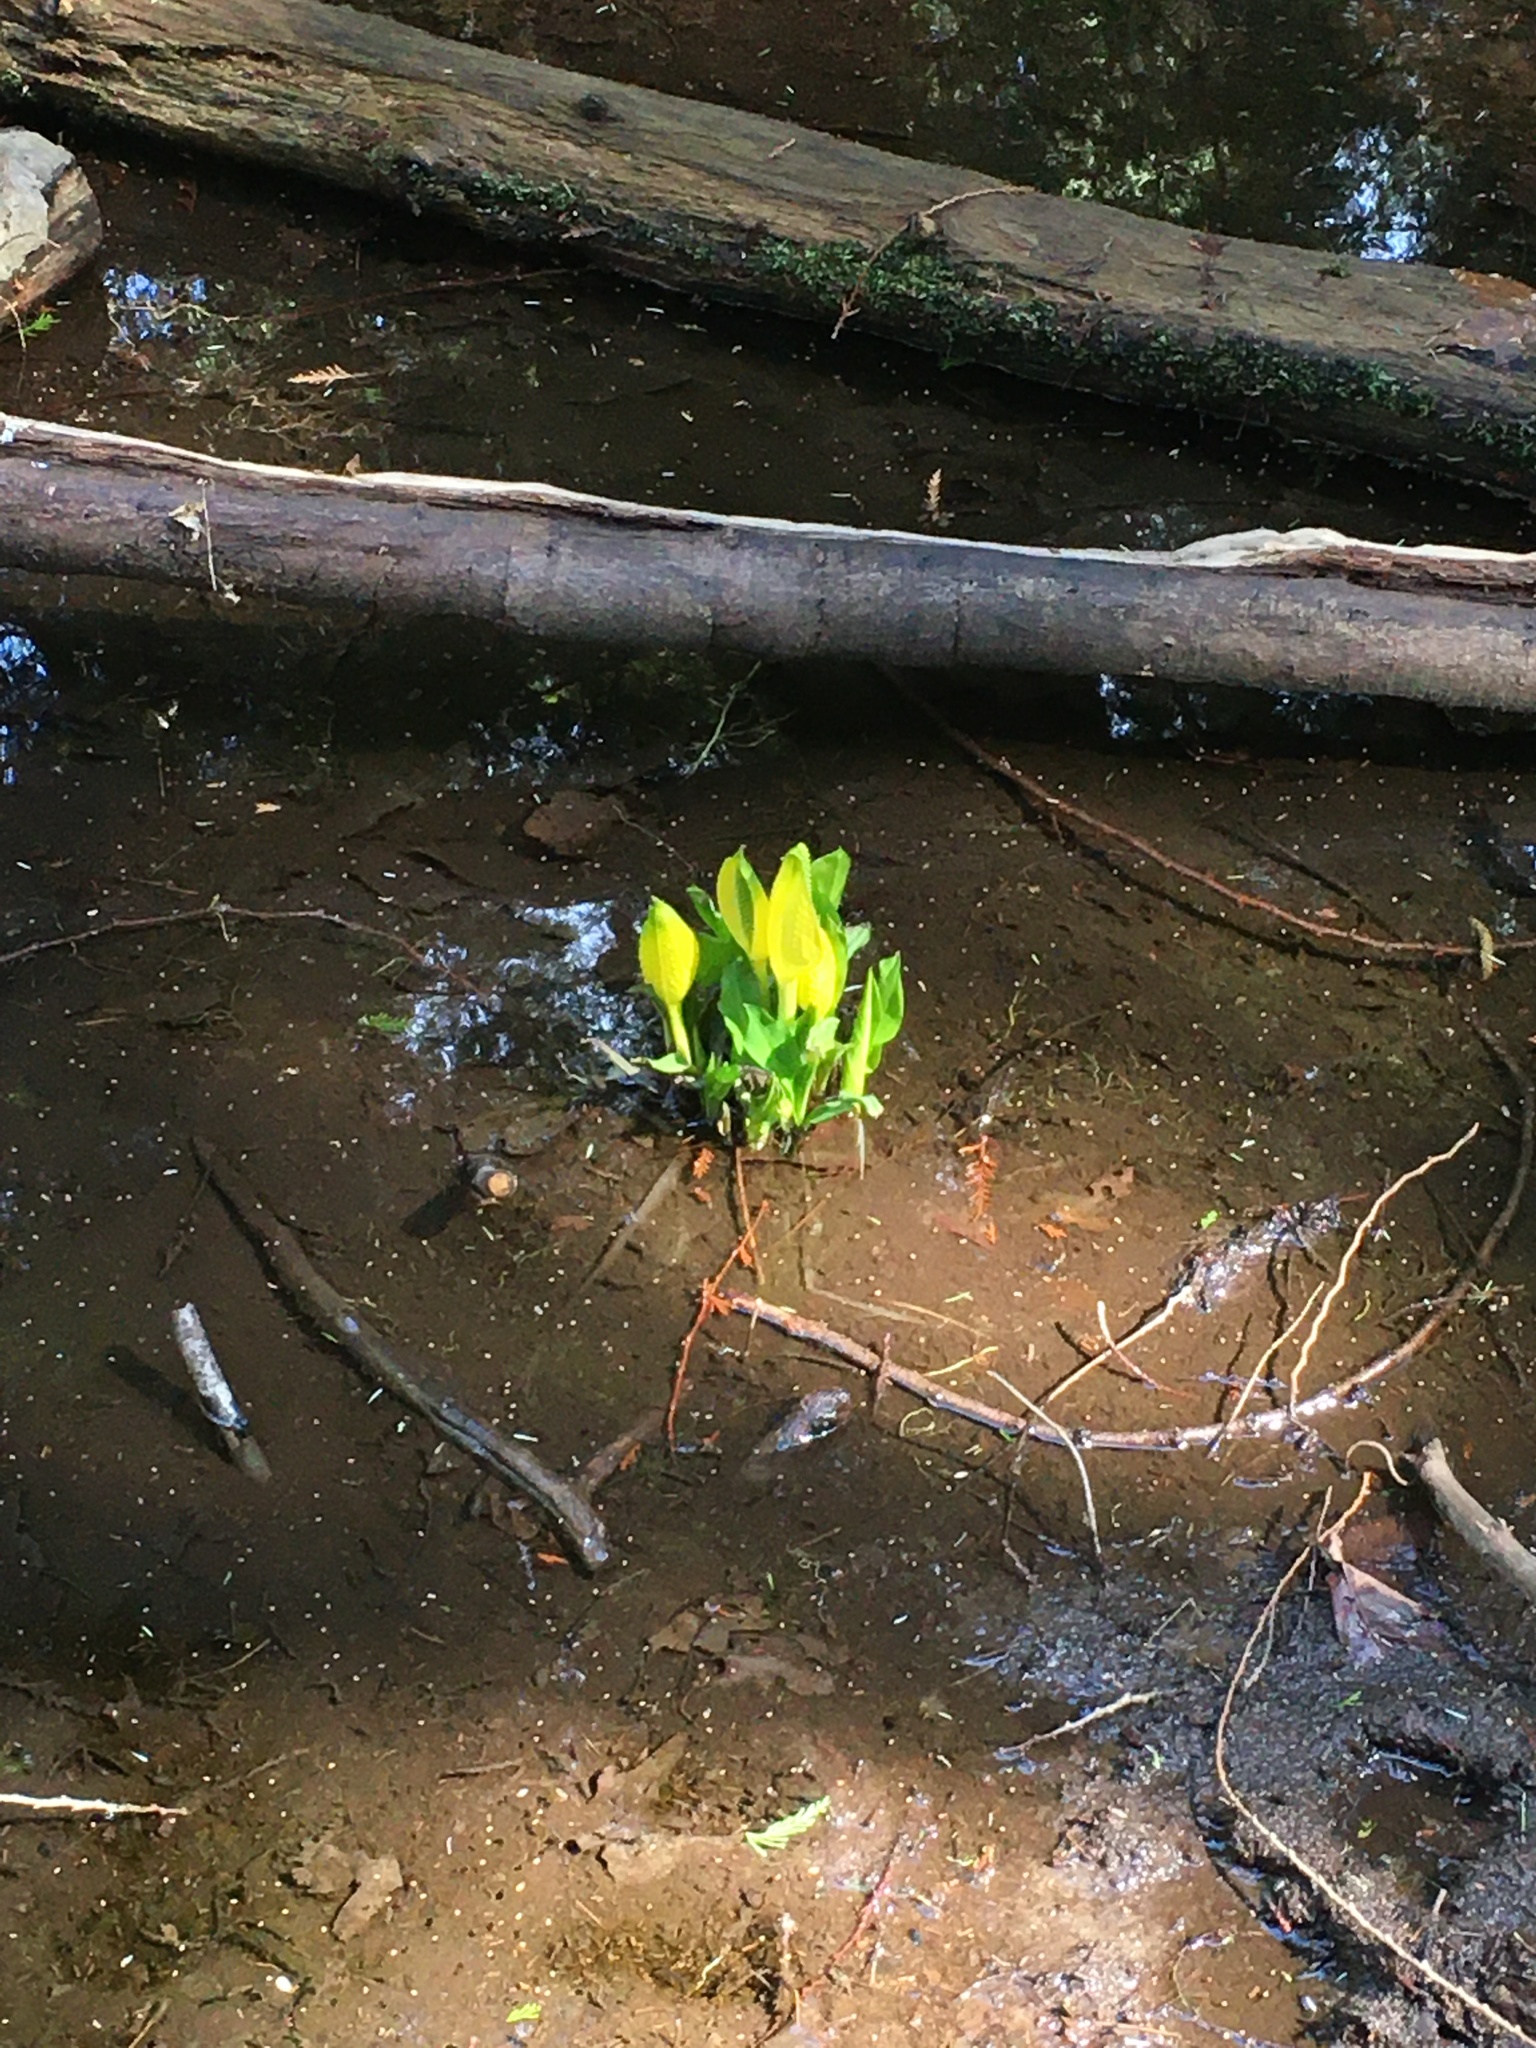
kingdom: Plantae
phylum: Tracheophyta
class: Liliopsida
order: Alismatales
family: Araceae
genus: Lysichiton
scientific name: Lysichiton americanus
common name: American skunk cabbage
